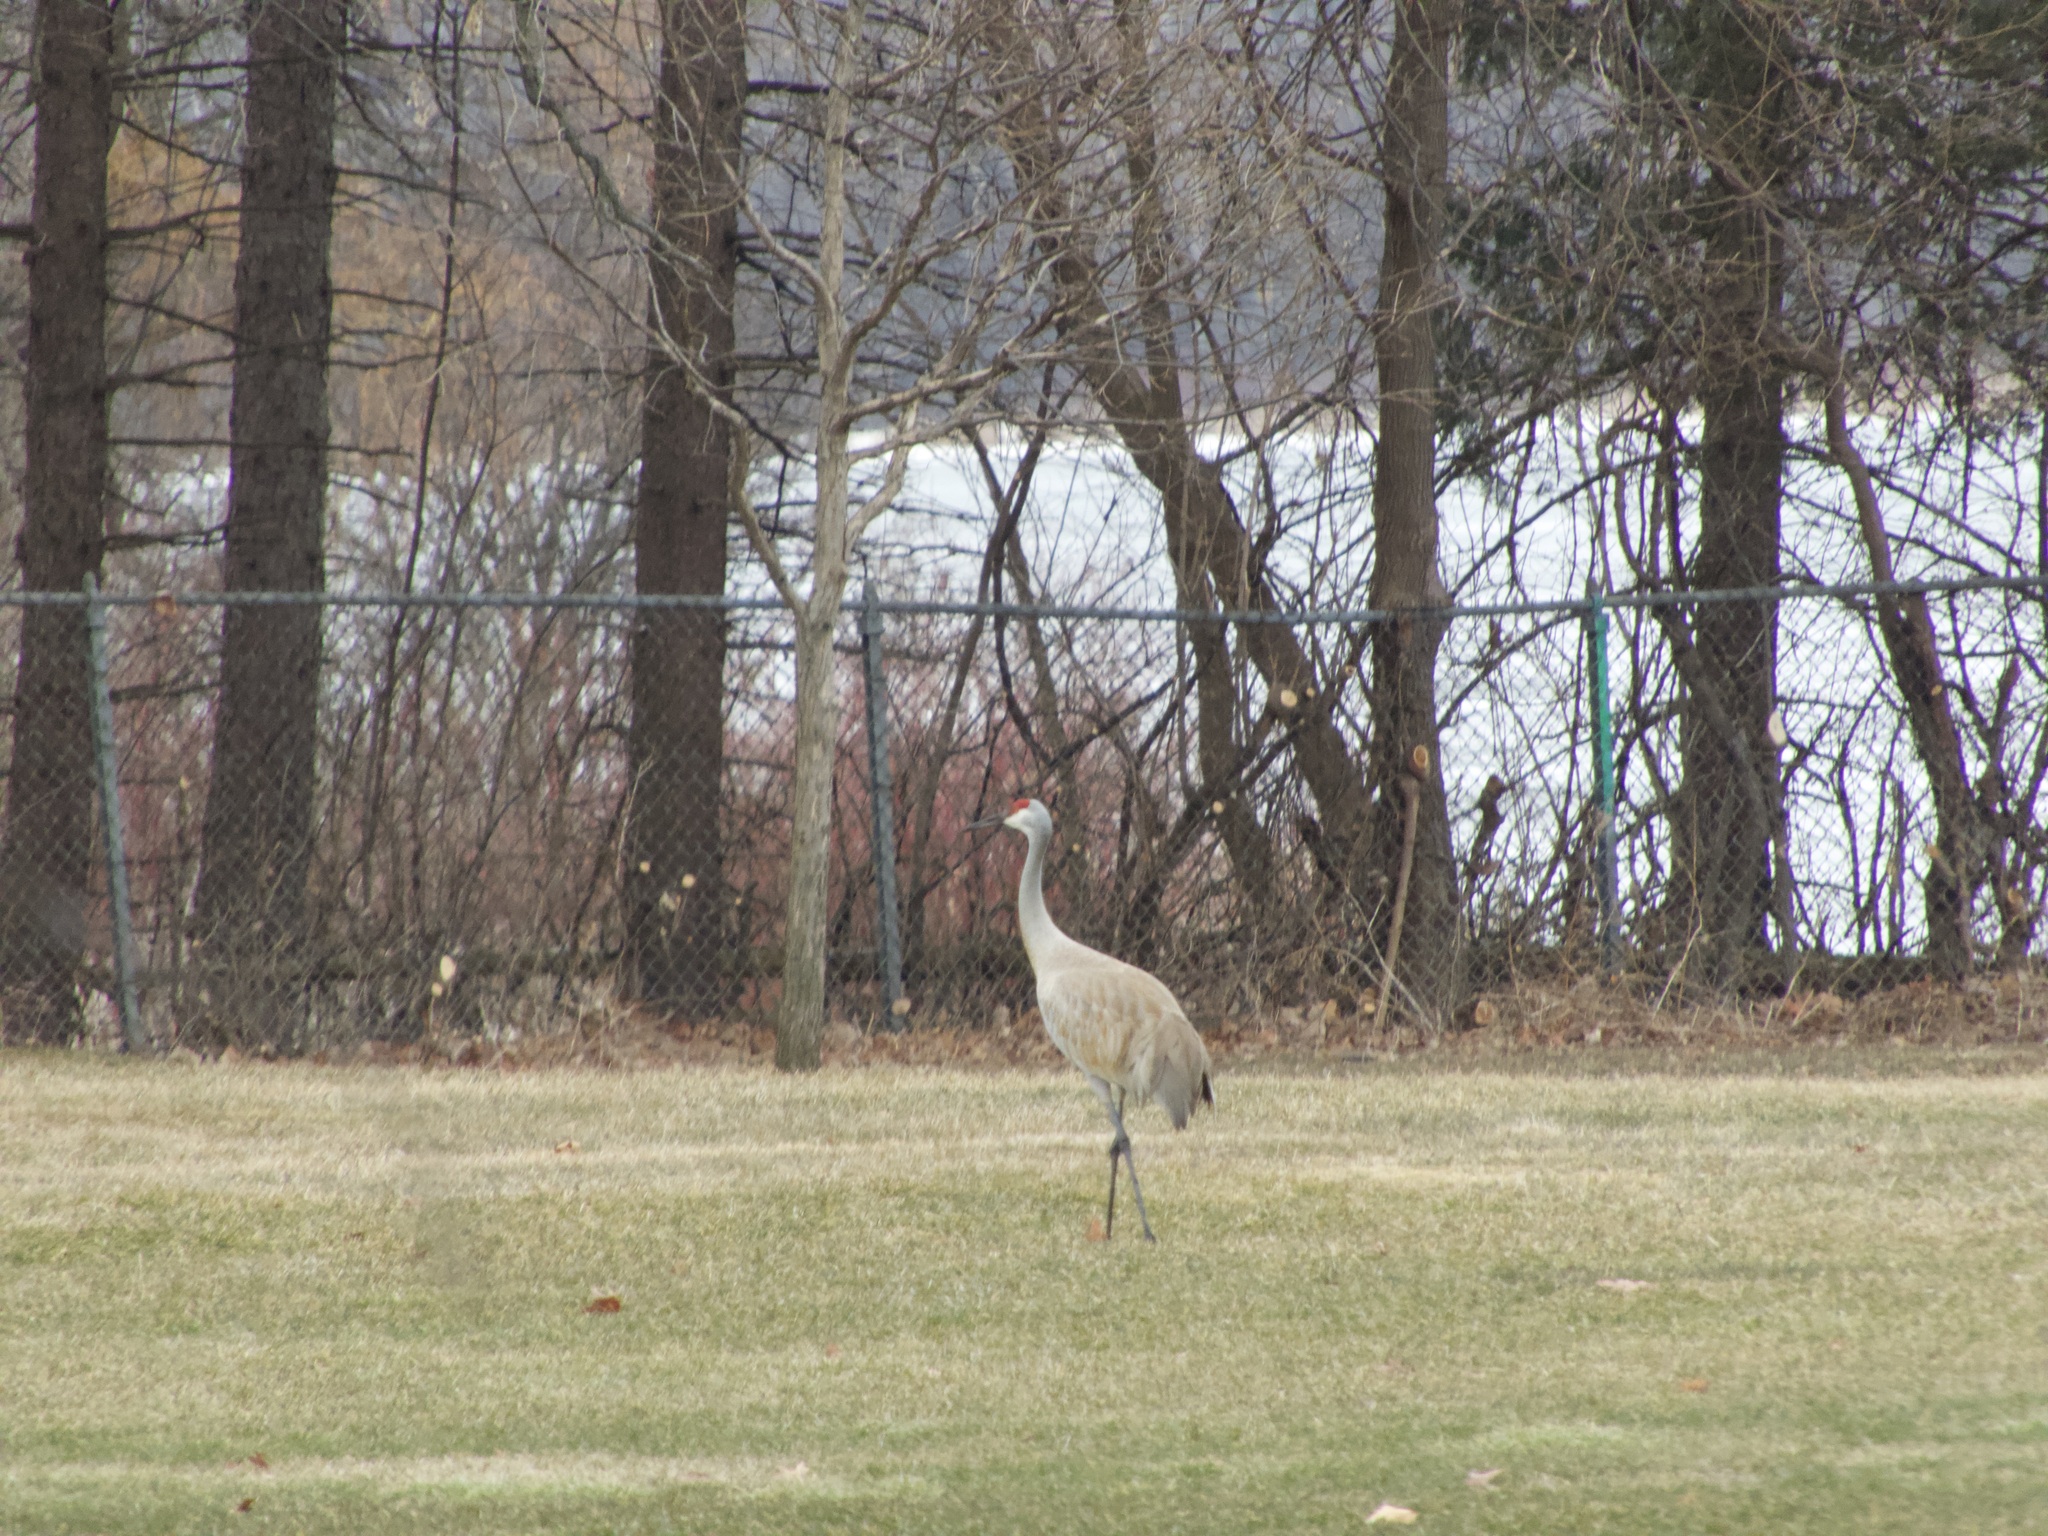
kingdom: Animalia
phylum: Chordata
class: Aves
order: Gruiformes
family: Gruidae
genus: Grus
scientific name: Grus canadensis
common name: Sandhill crane
